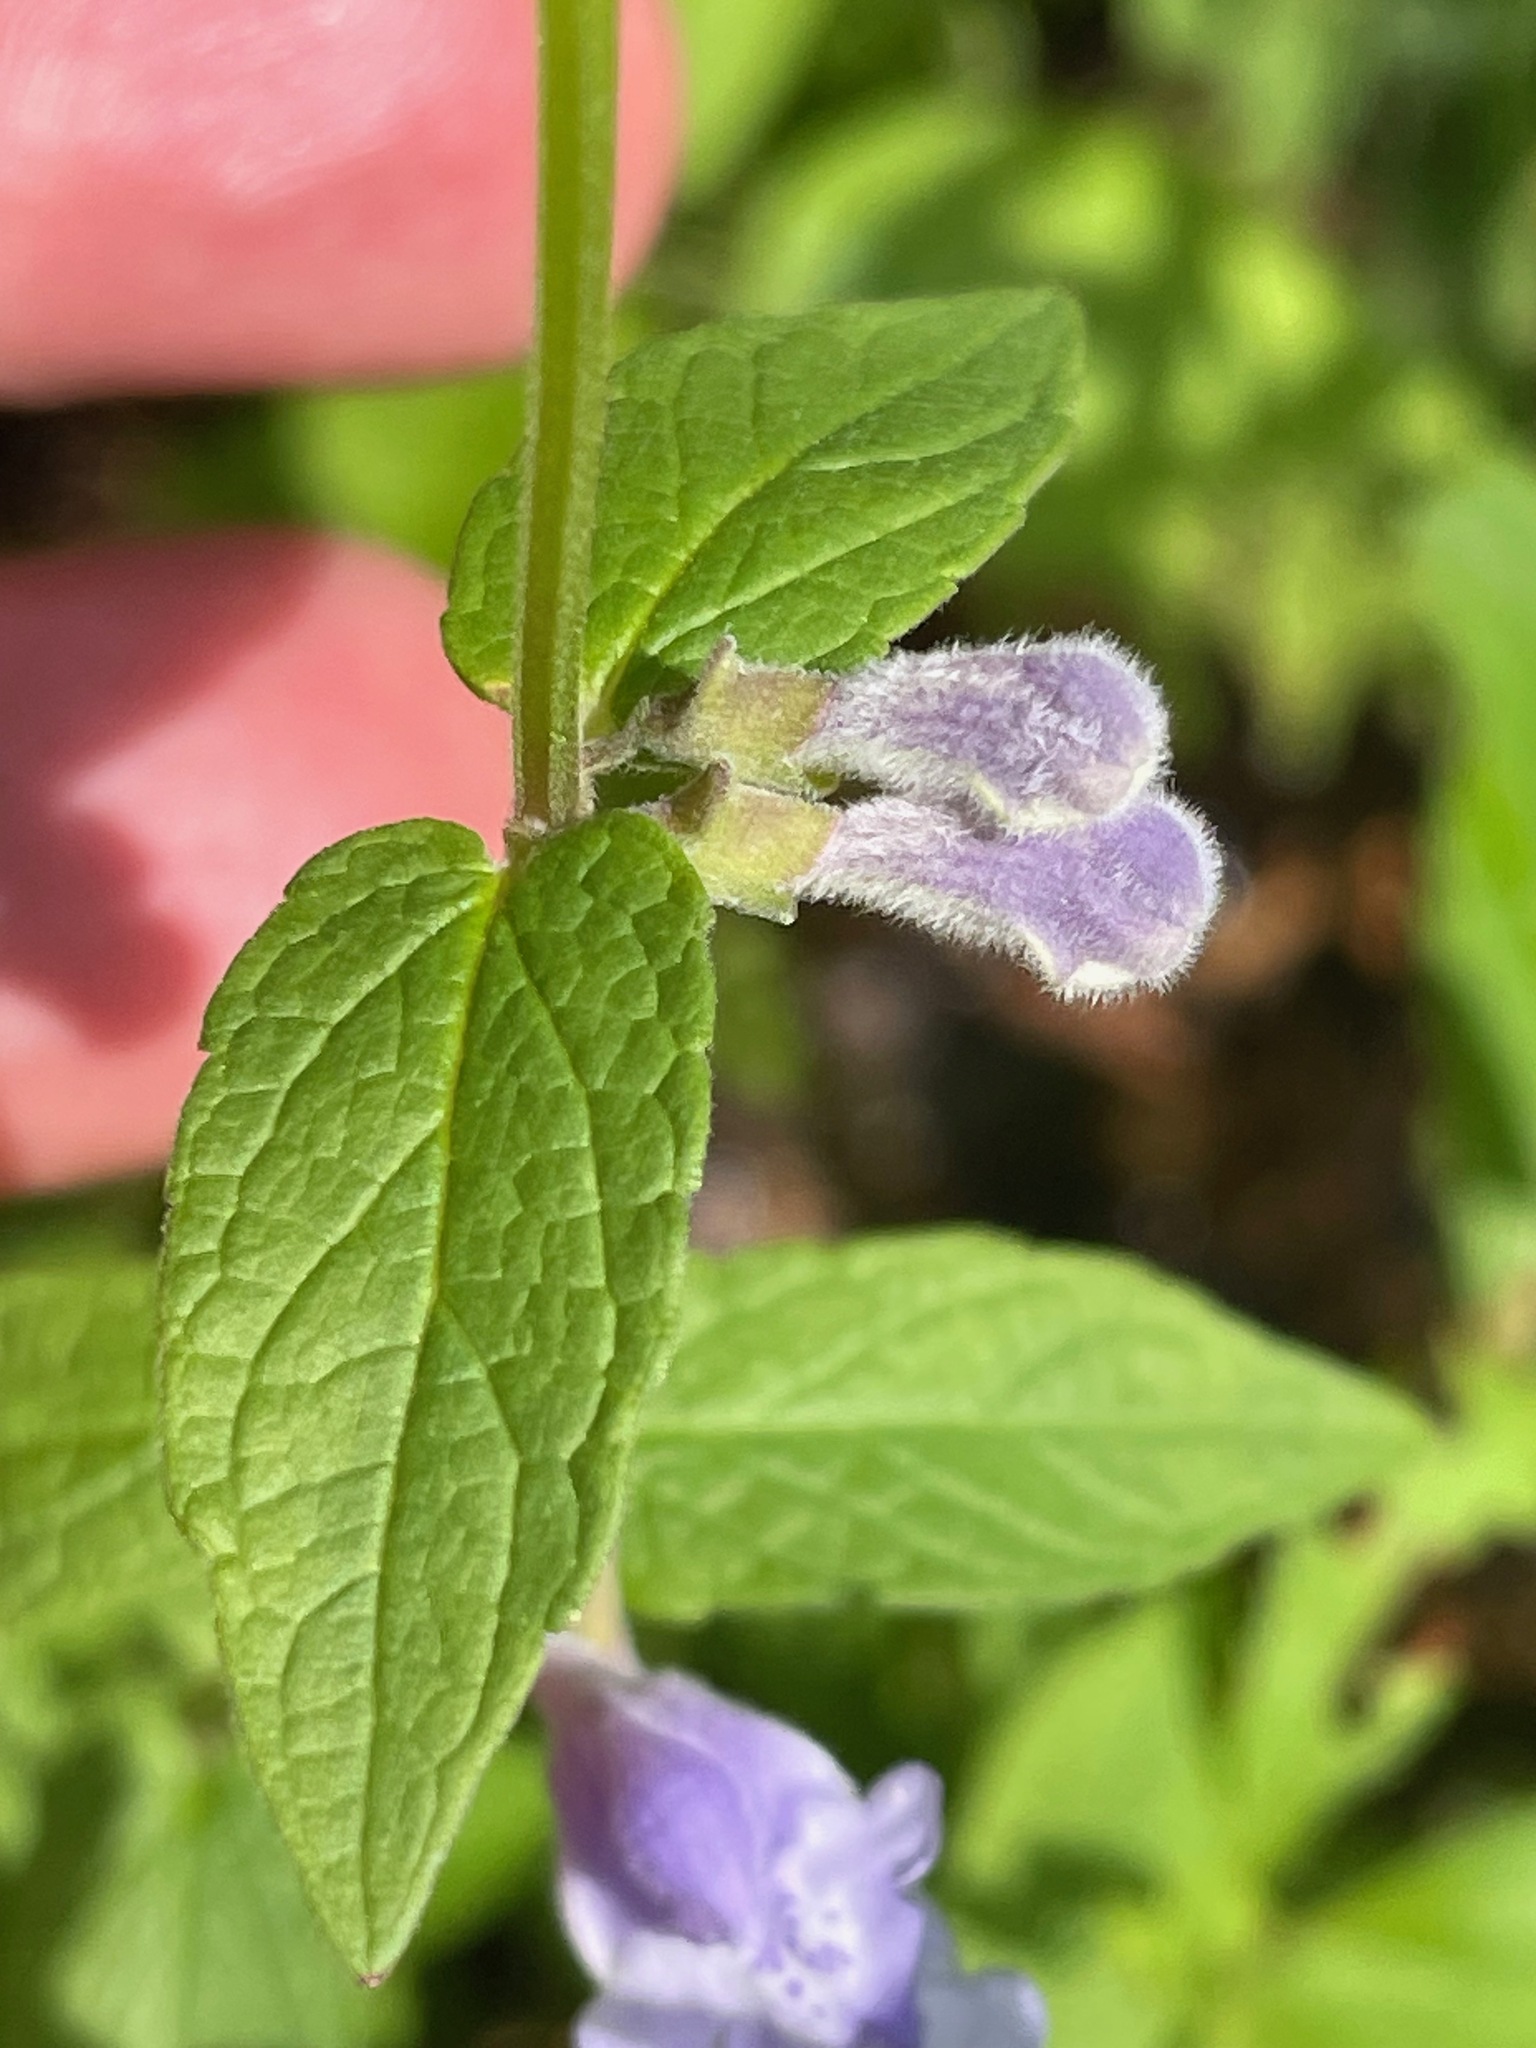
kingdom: Plantae
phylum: Tracheophyta
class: Magnoliopsida
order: Lamiales
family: Lamiaceae
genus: Scutellaria
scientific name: Scutellaria galericulata
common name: Skullcap
